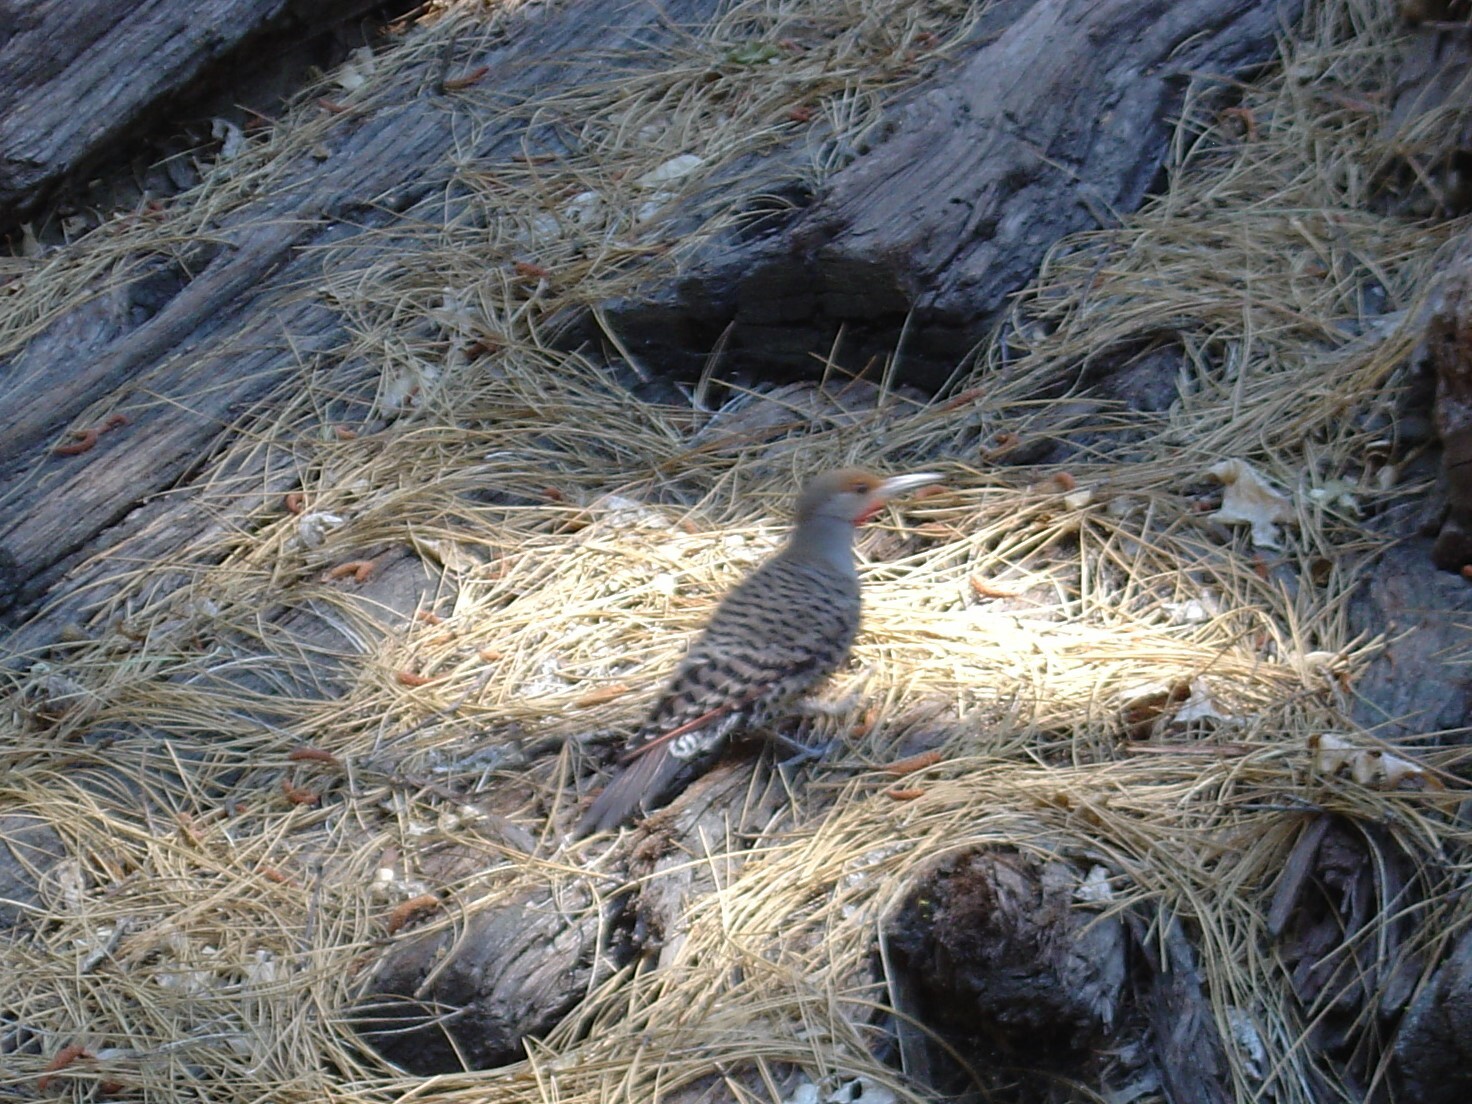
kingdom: Animalia
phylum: Chordata
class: Aves
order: Piciformes
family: Picidae
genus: Colaptes
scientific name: Colaptes auratus
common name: Northern flicker
